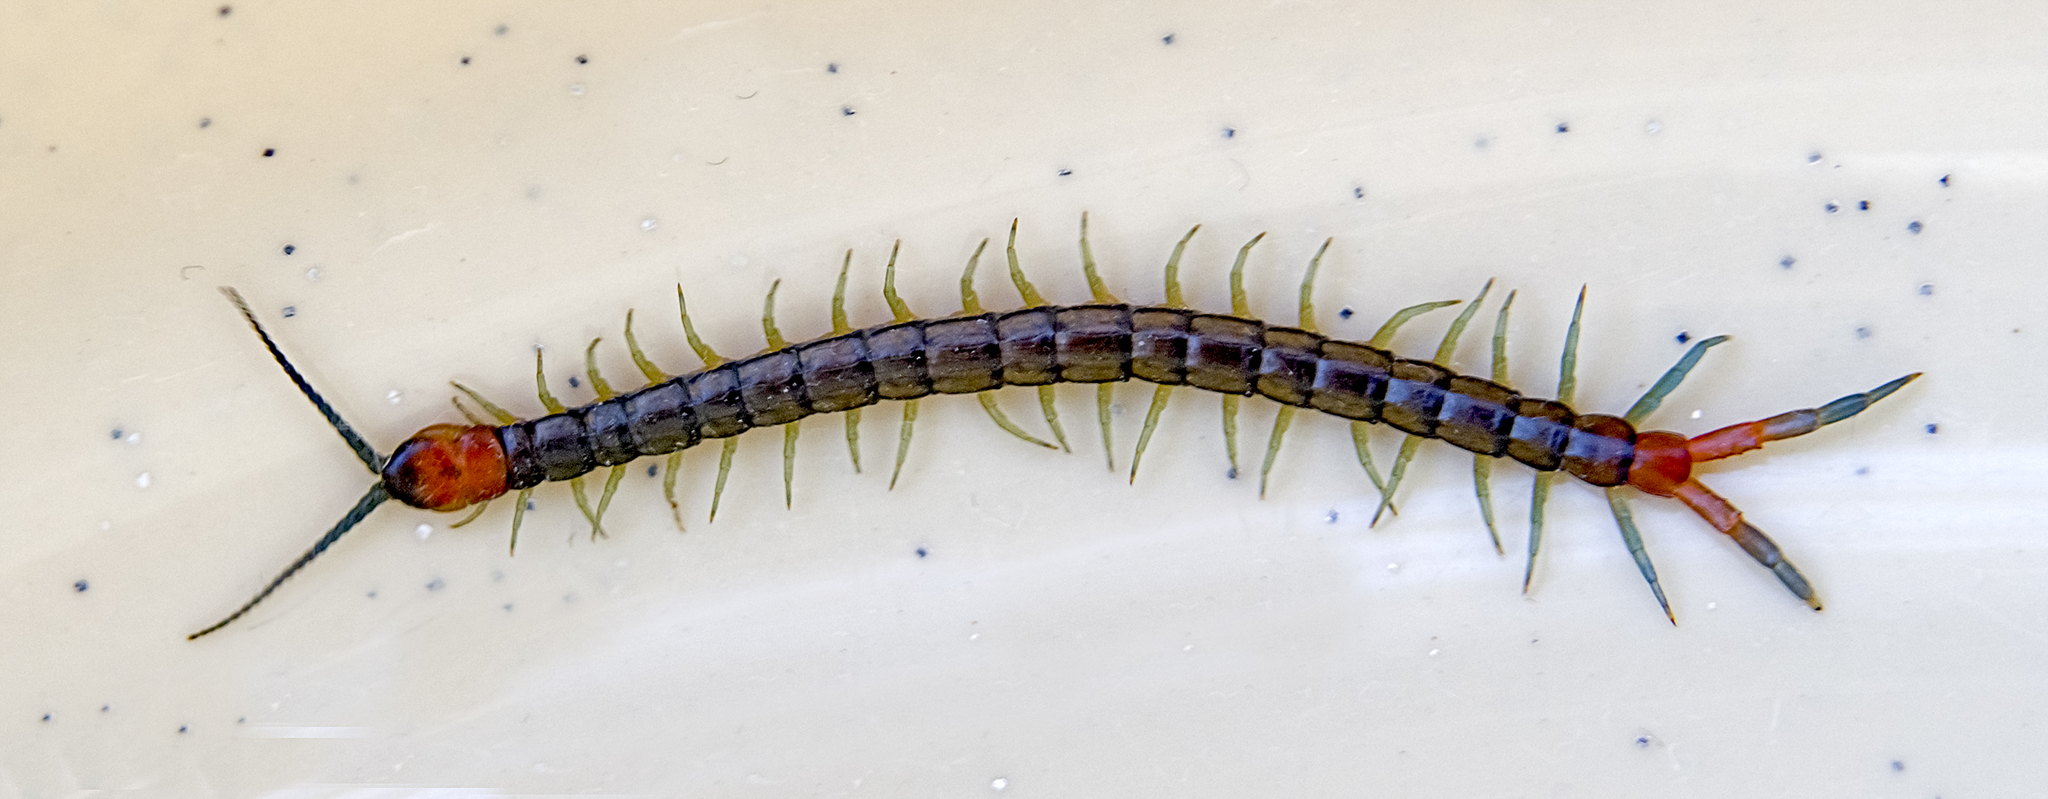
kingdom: Animalia
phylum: Arthropoda
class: Chilopoda
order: Scolopendromorpha
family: Scolopendridae
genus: Scolopendra
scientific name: Scolopendra cingulata
